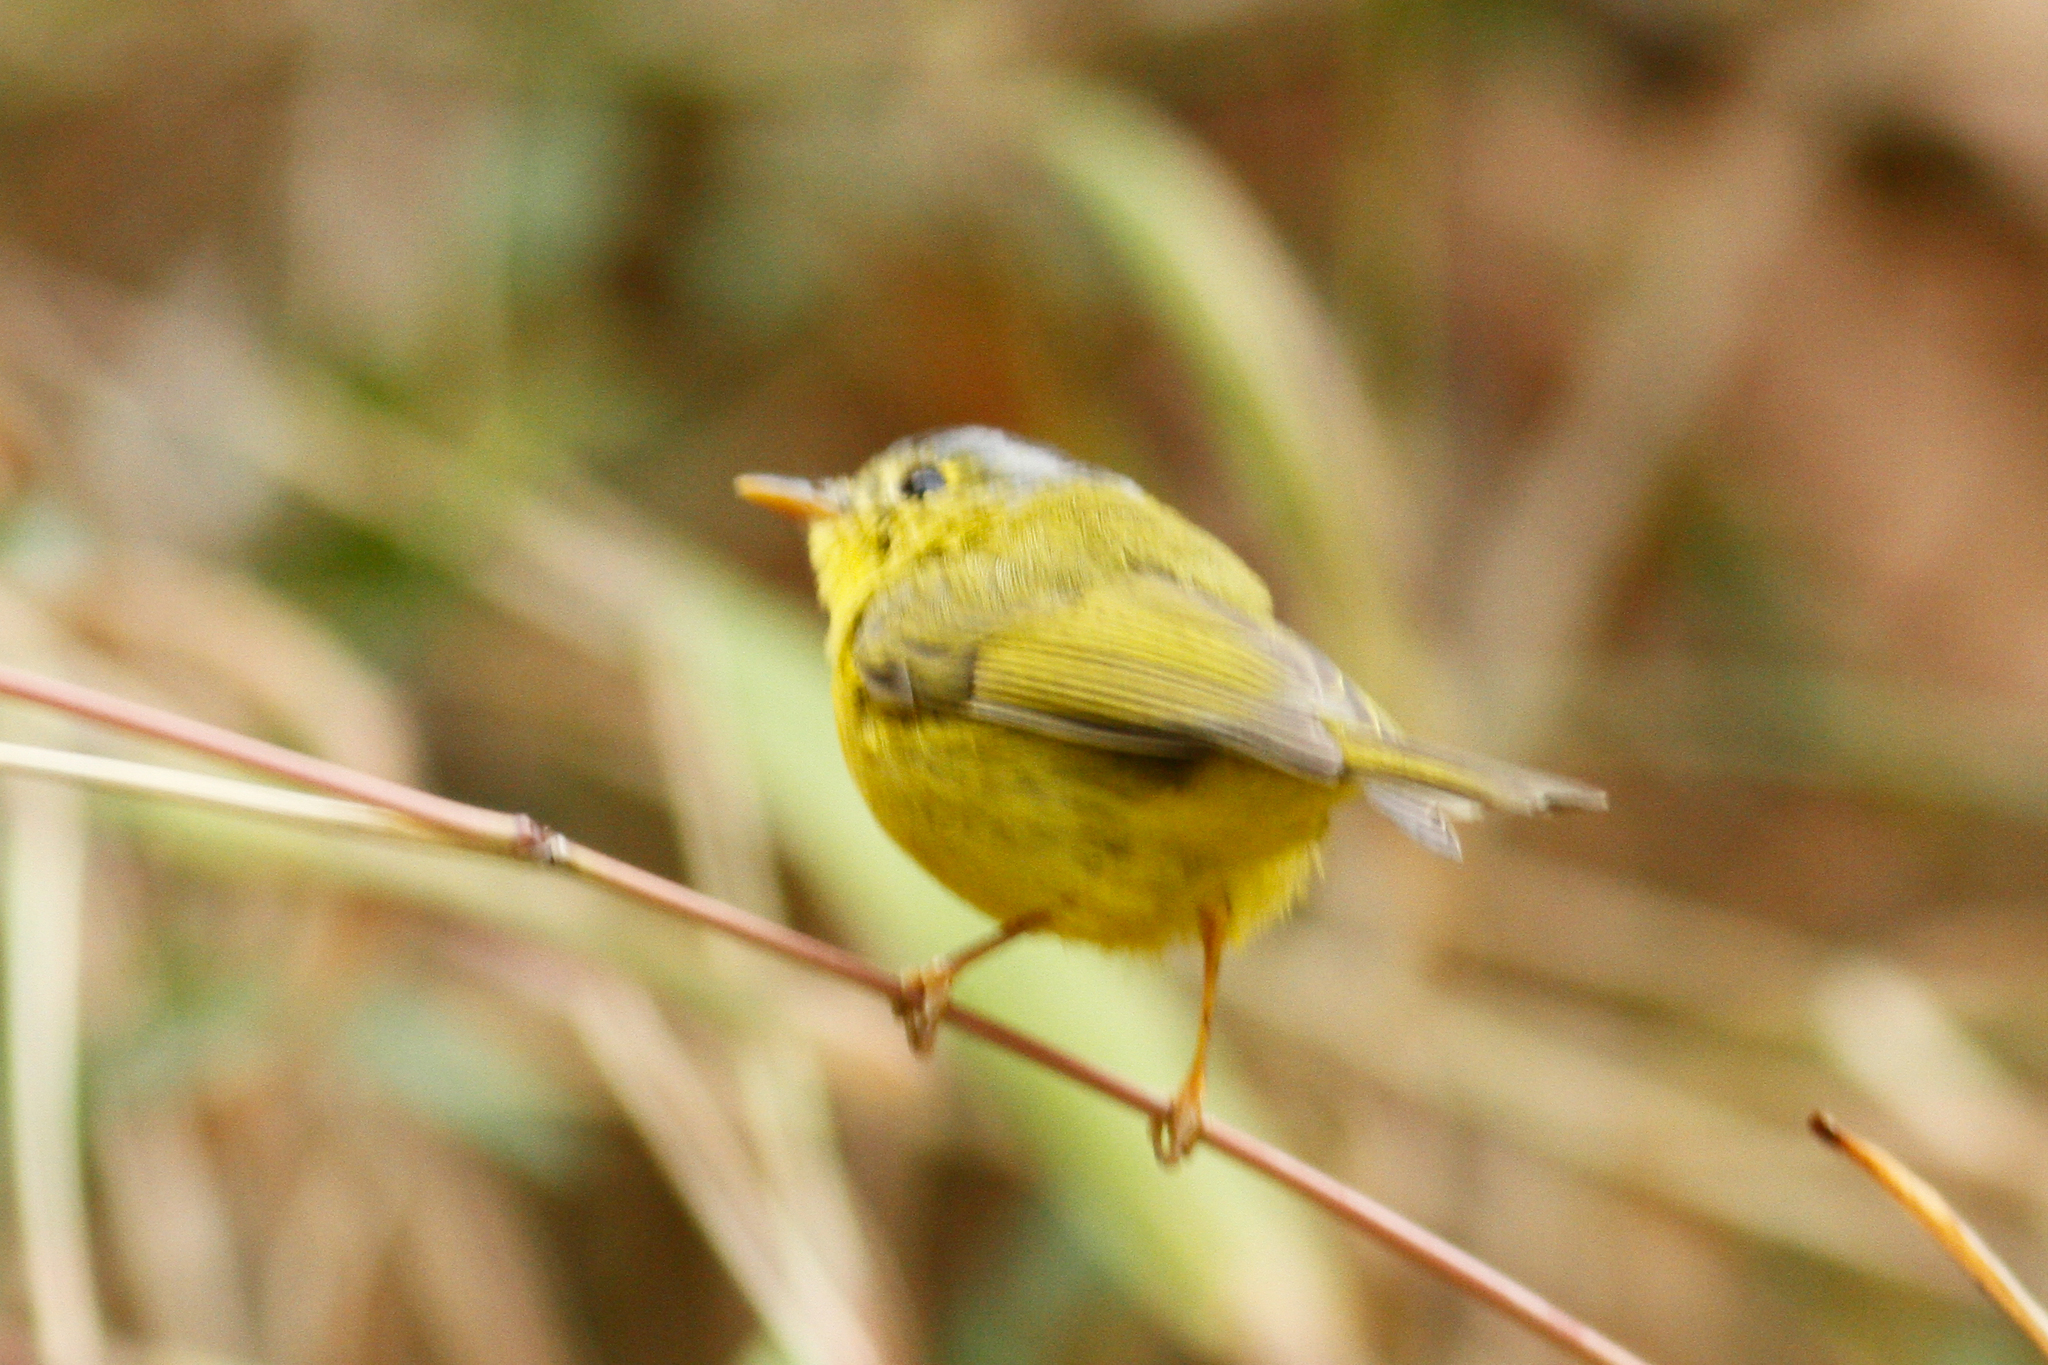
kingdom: Animalia
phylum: Chordata
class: Aves
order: Passeriformes
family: Phylloscopidae
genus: Seicercus
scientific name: Seicercus tephrocephalus
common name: Gray-crowned warbler
